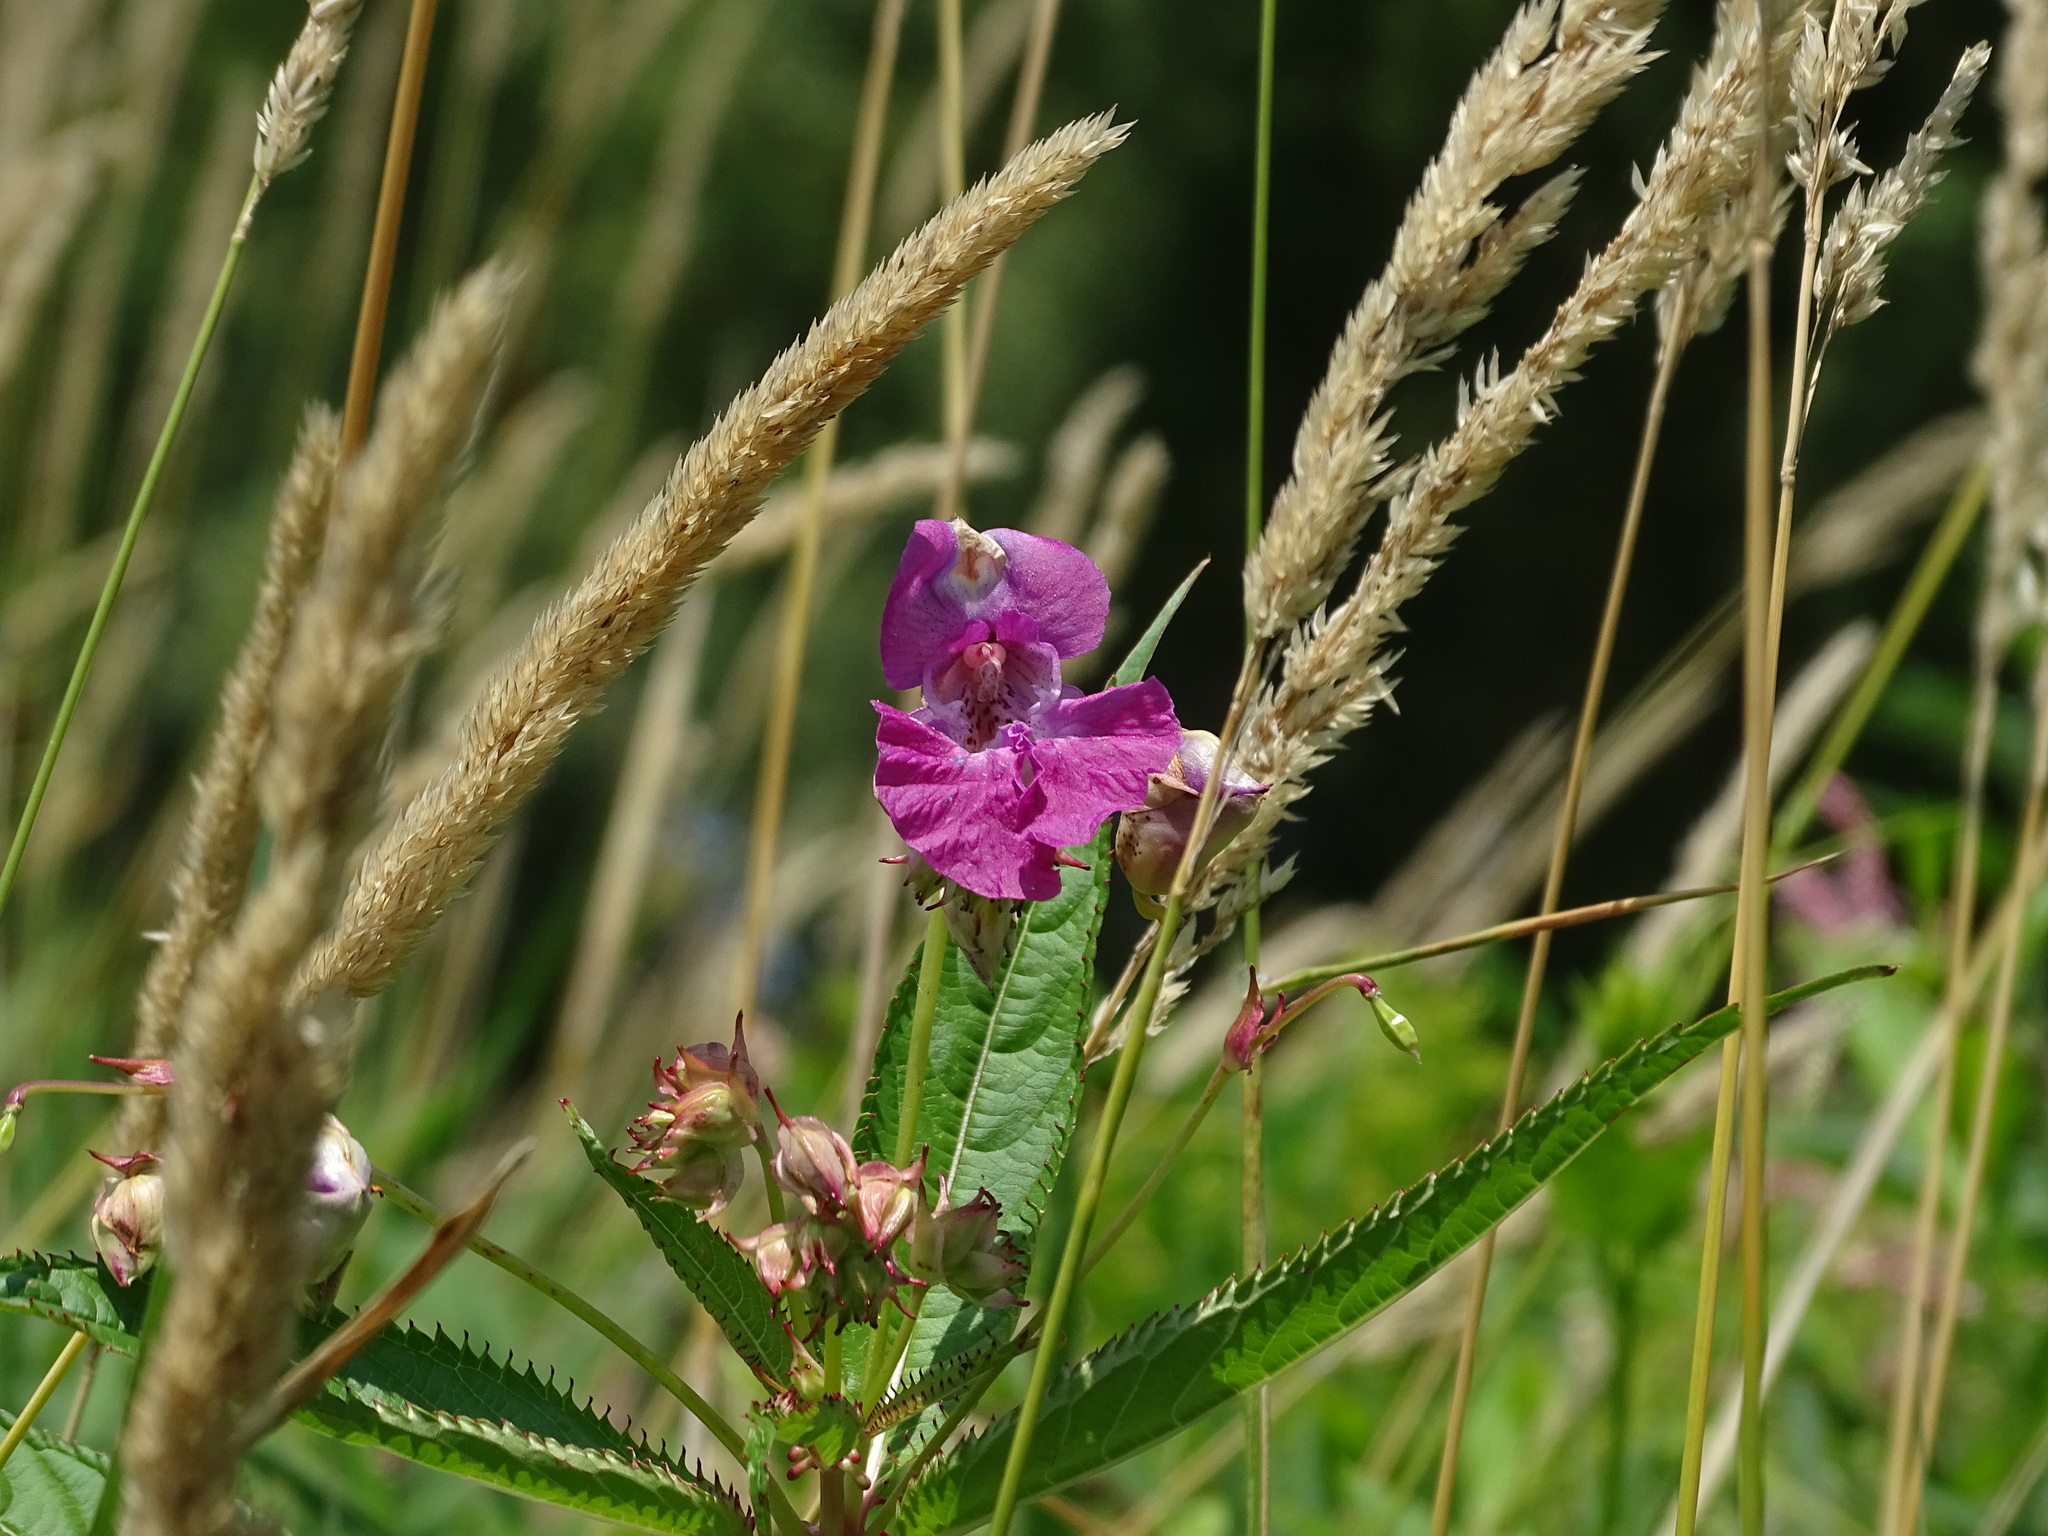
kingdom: Plantae
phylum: Tracheophyta
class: Magnoliopsida
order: Ericales
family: Balsaminaceae
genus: Impatiens
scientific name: Impatiens glandulifera
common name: Himalayan balsam
